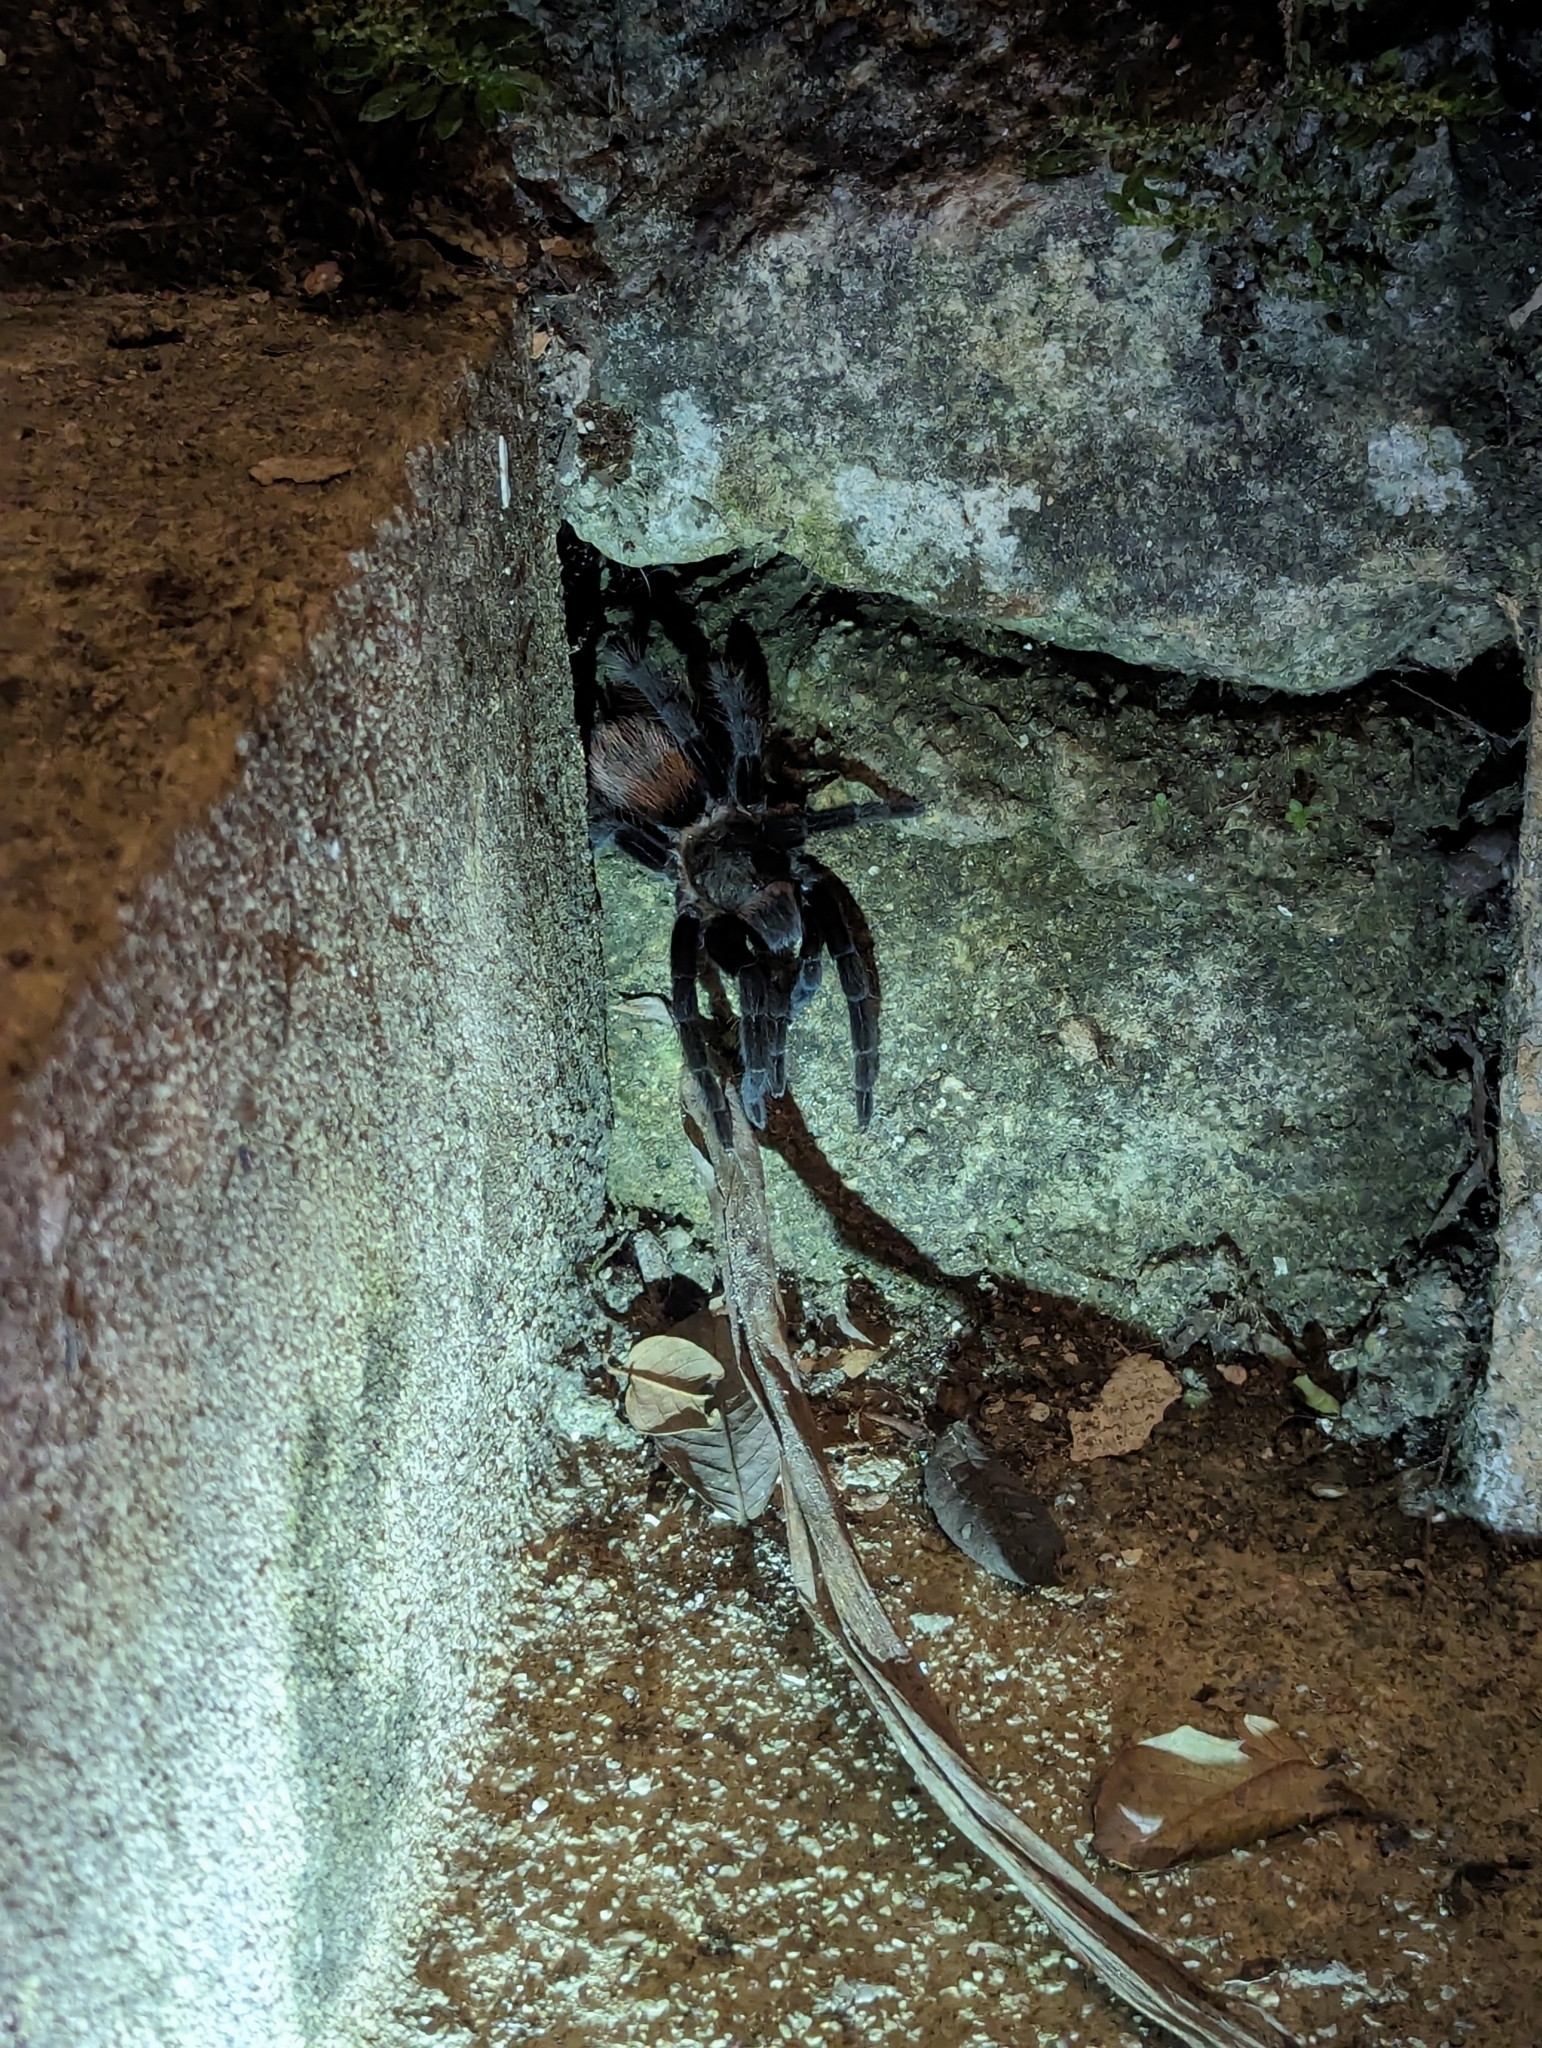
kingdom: Animalia
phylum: Arthropoda
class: Arachnida
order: Araneae
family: Theraphosidae
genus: Tliltocatl
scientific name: Tliltocatl vagans
